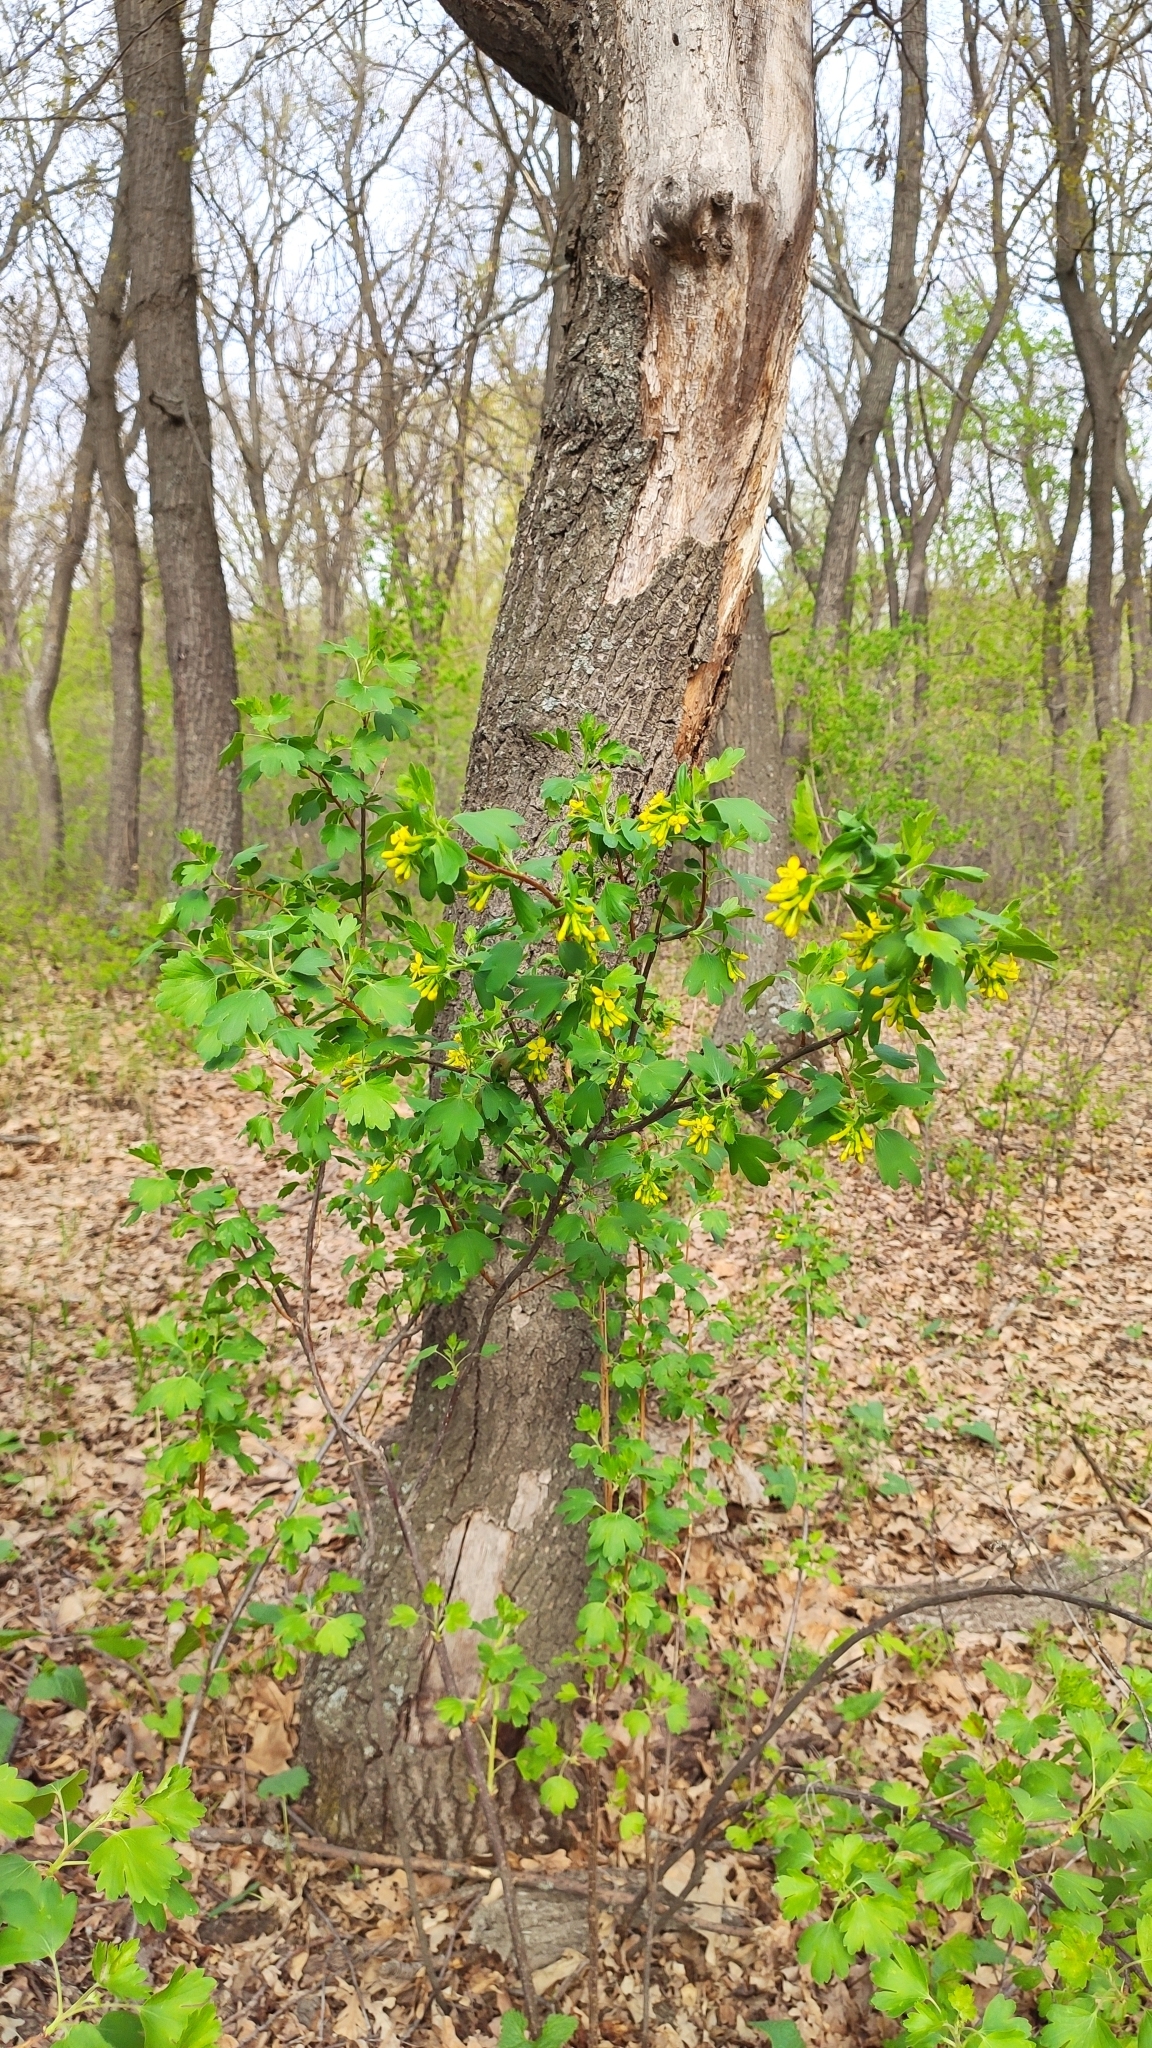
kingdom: Plantae
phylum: Tracheophyta
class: Magnoliopsida
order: Saxifragales
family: Grossulariaceae
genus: Ribes
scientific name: Ribes aureum
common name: Golden currant
